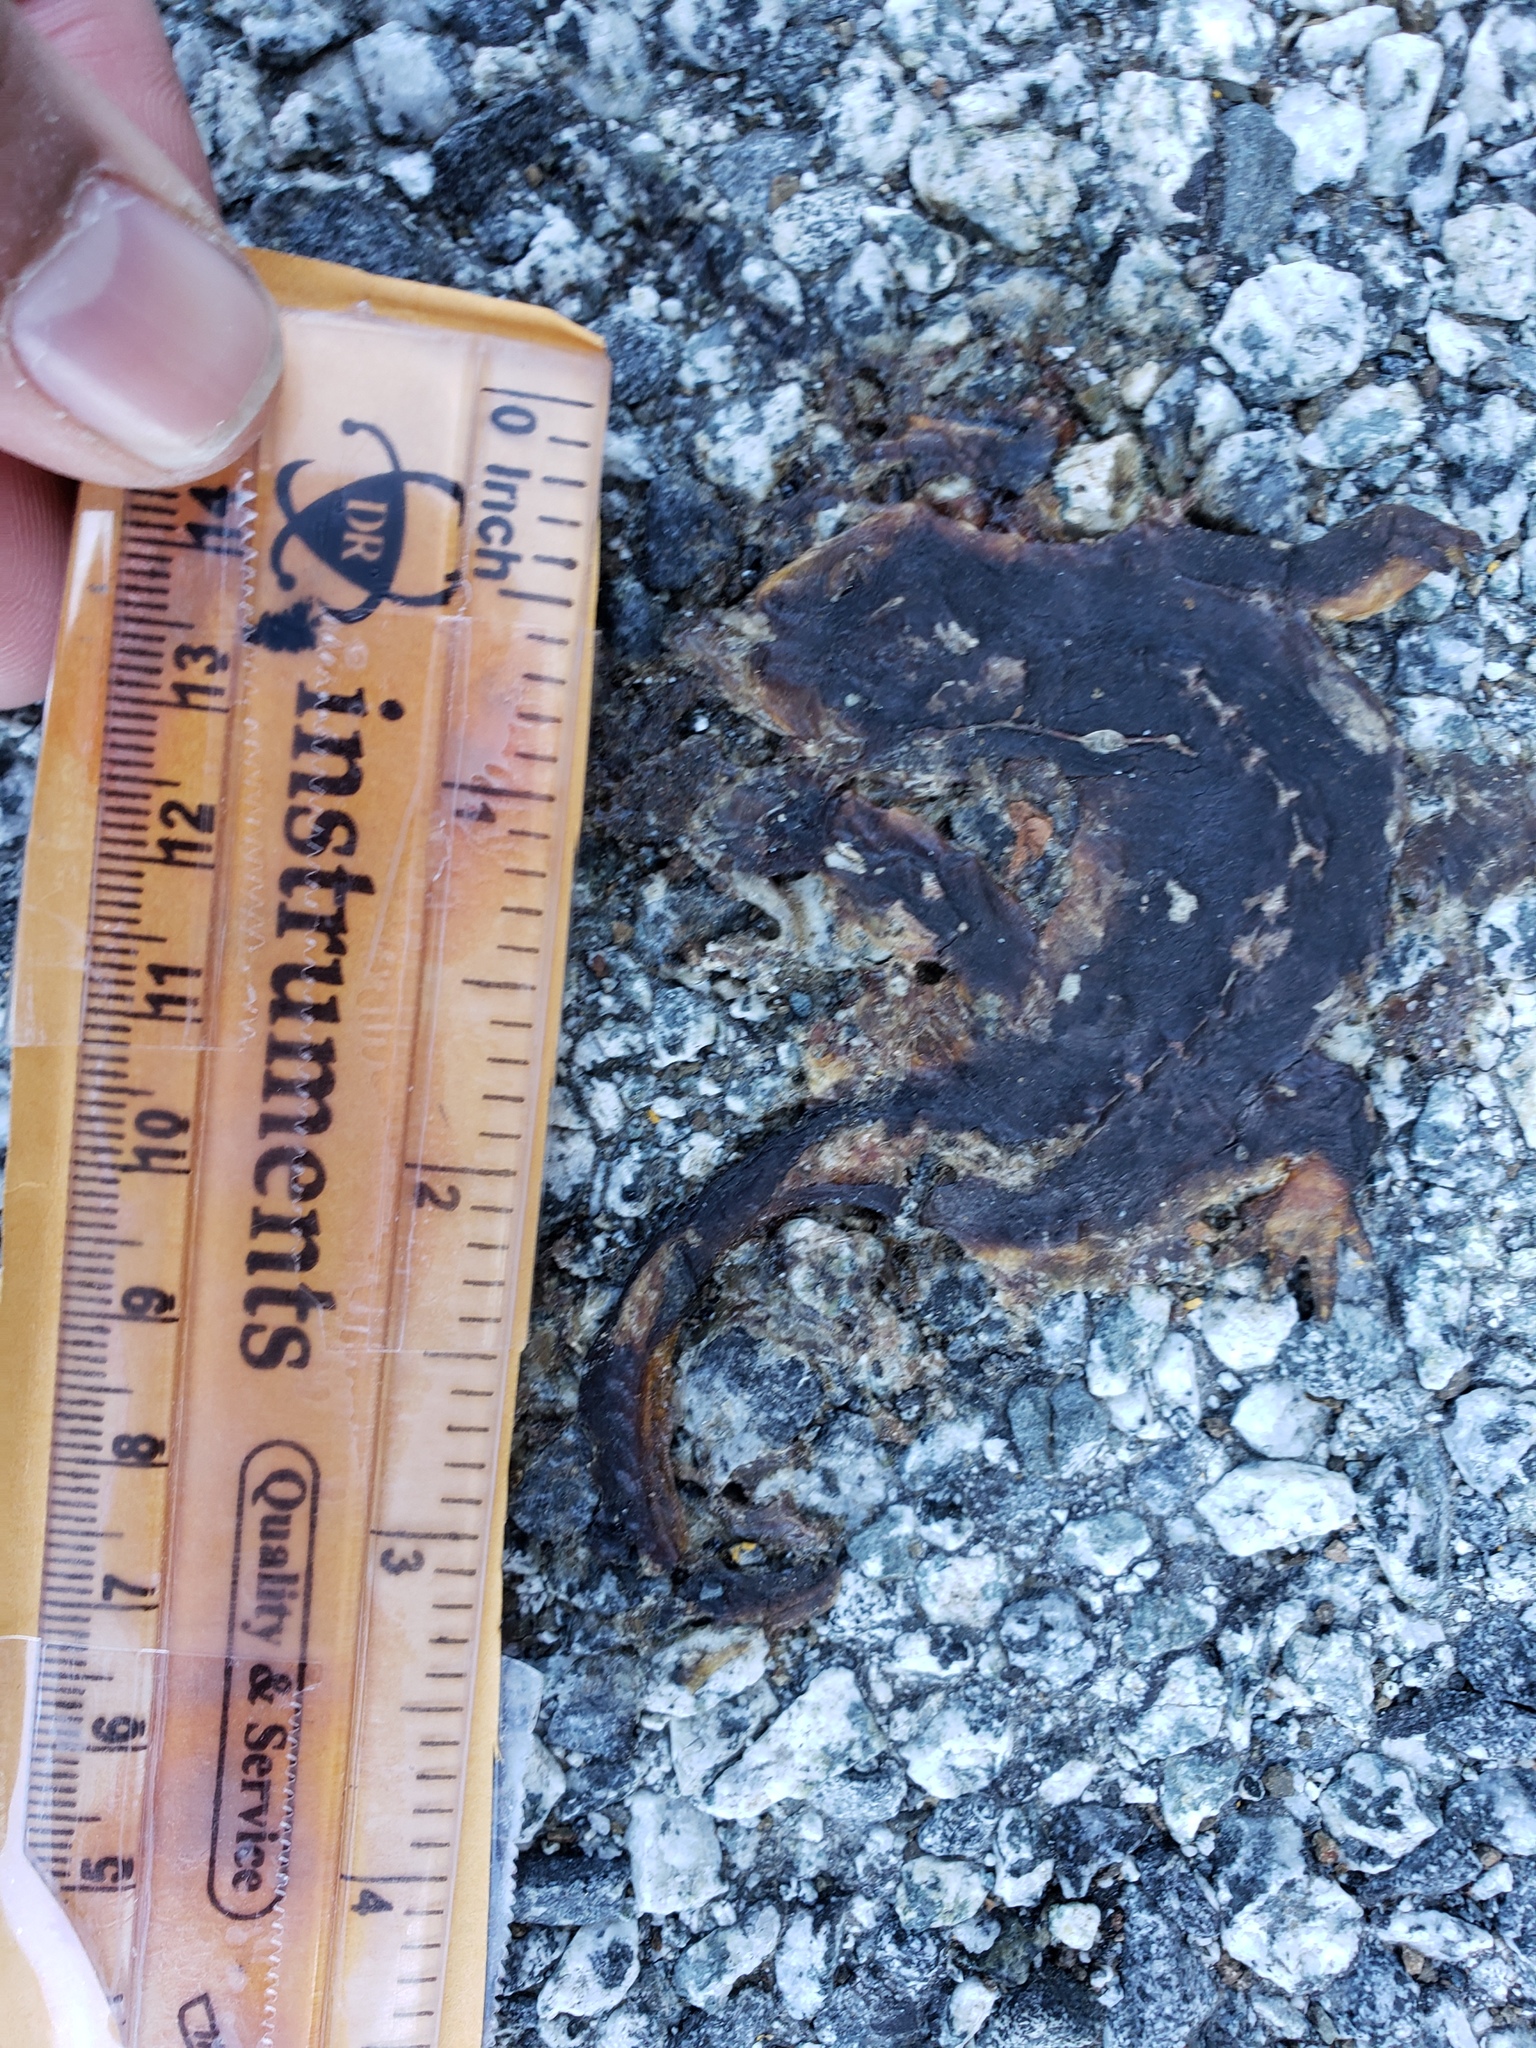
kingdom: Animalia
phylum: Chordata
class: Amphibia
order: Caudata
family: Salamandridae
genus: Taricha
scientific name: Taricha
